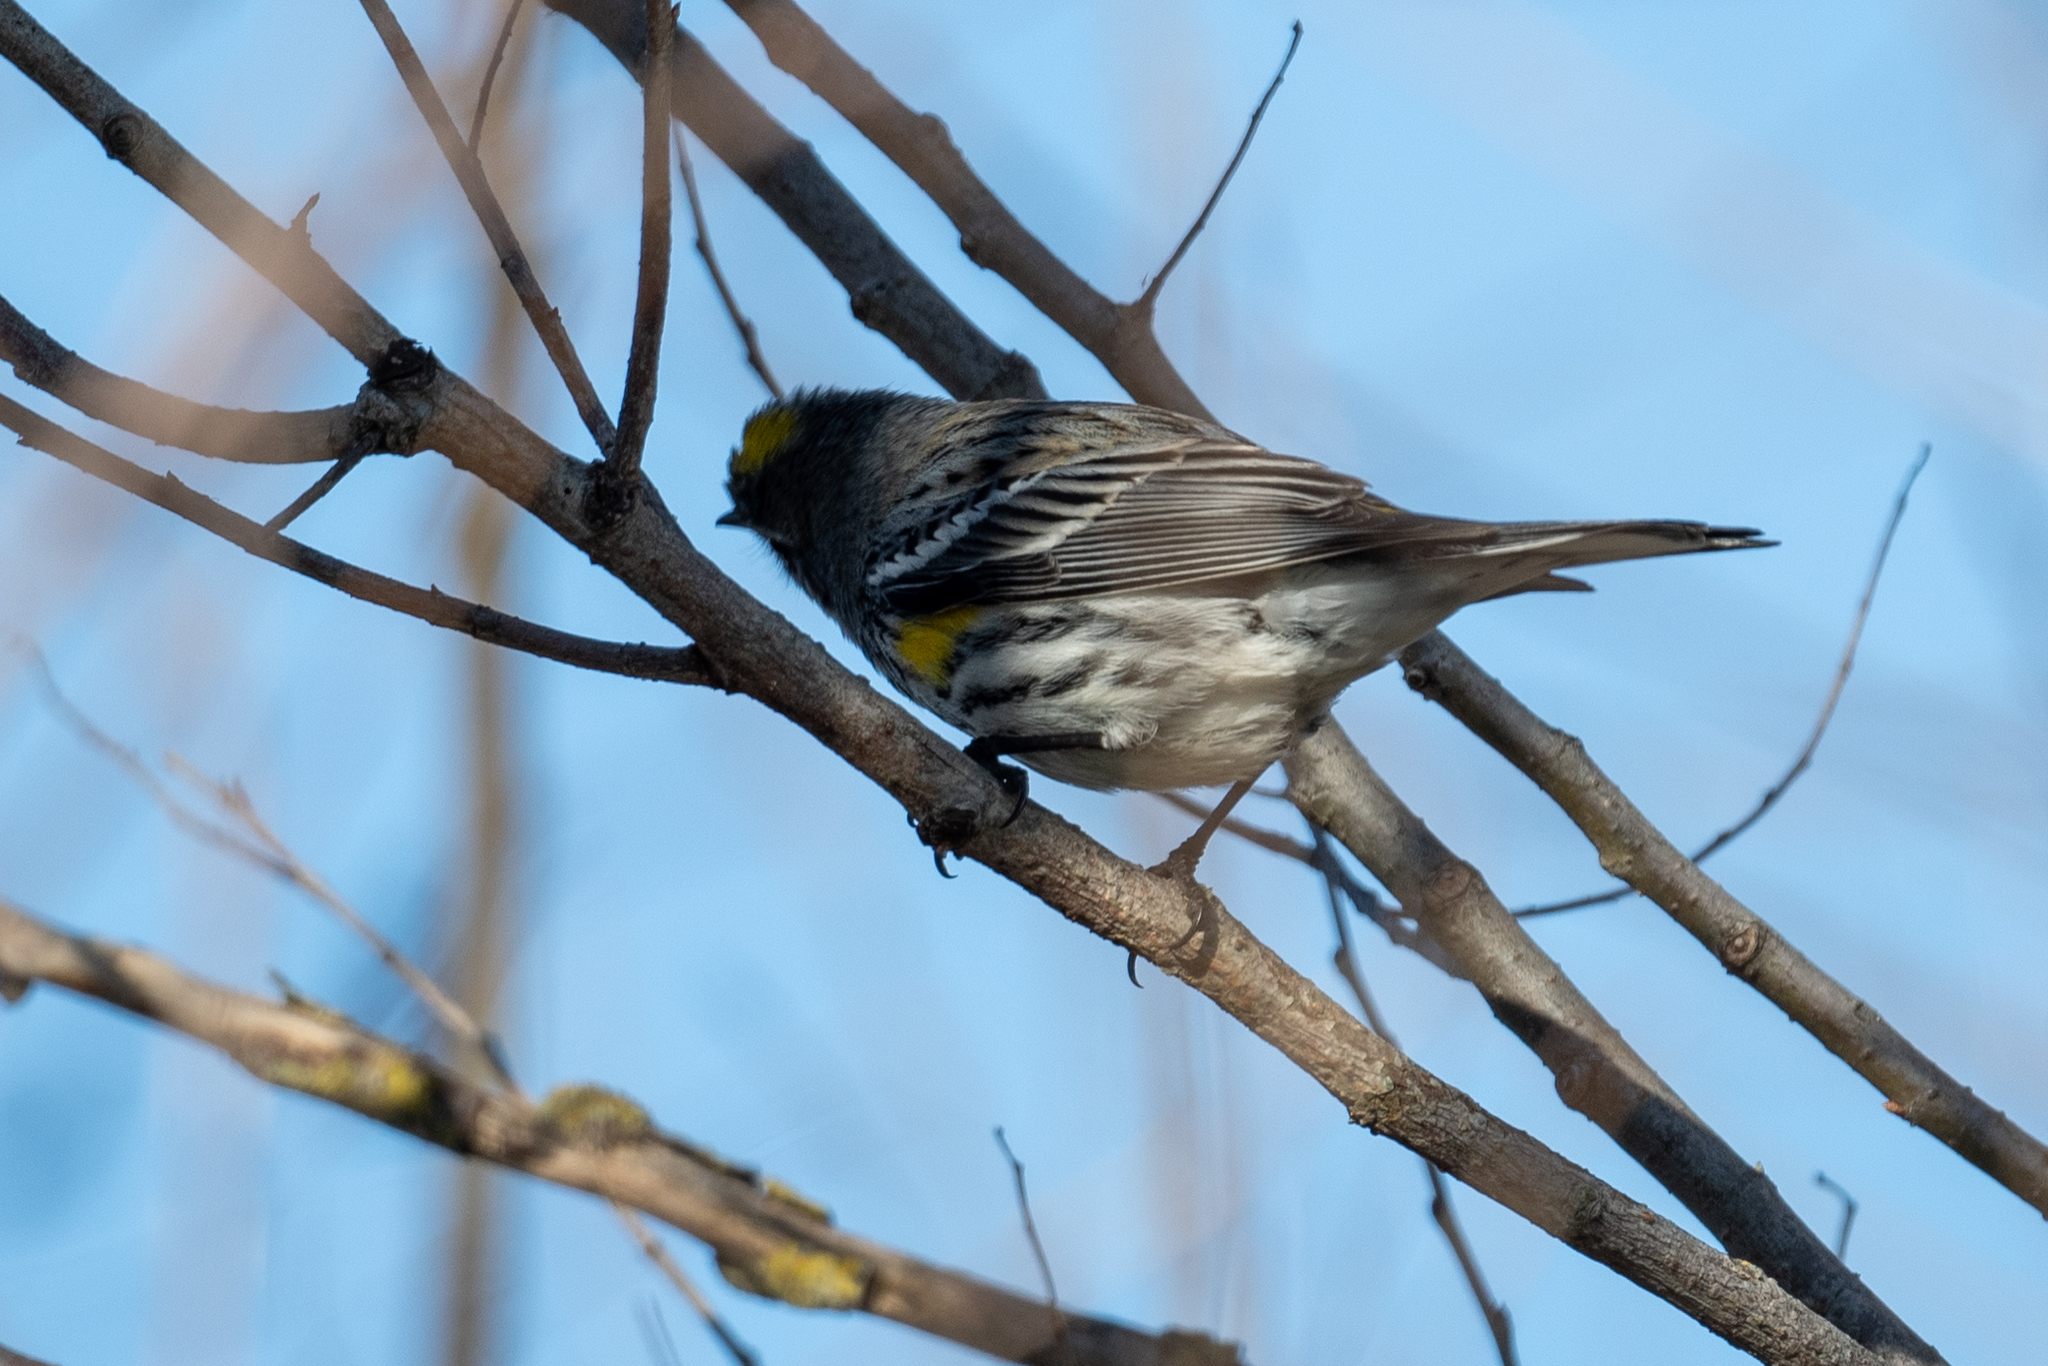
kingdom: Animalia
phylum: Chordata
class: Aves
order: Passeriformes
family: Parulidae
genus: Setophaga
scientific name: Setophaga coronata
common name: Myrtle warbler
